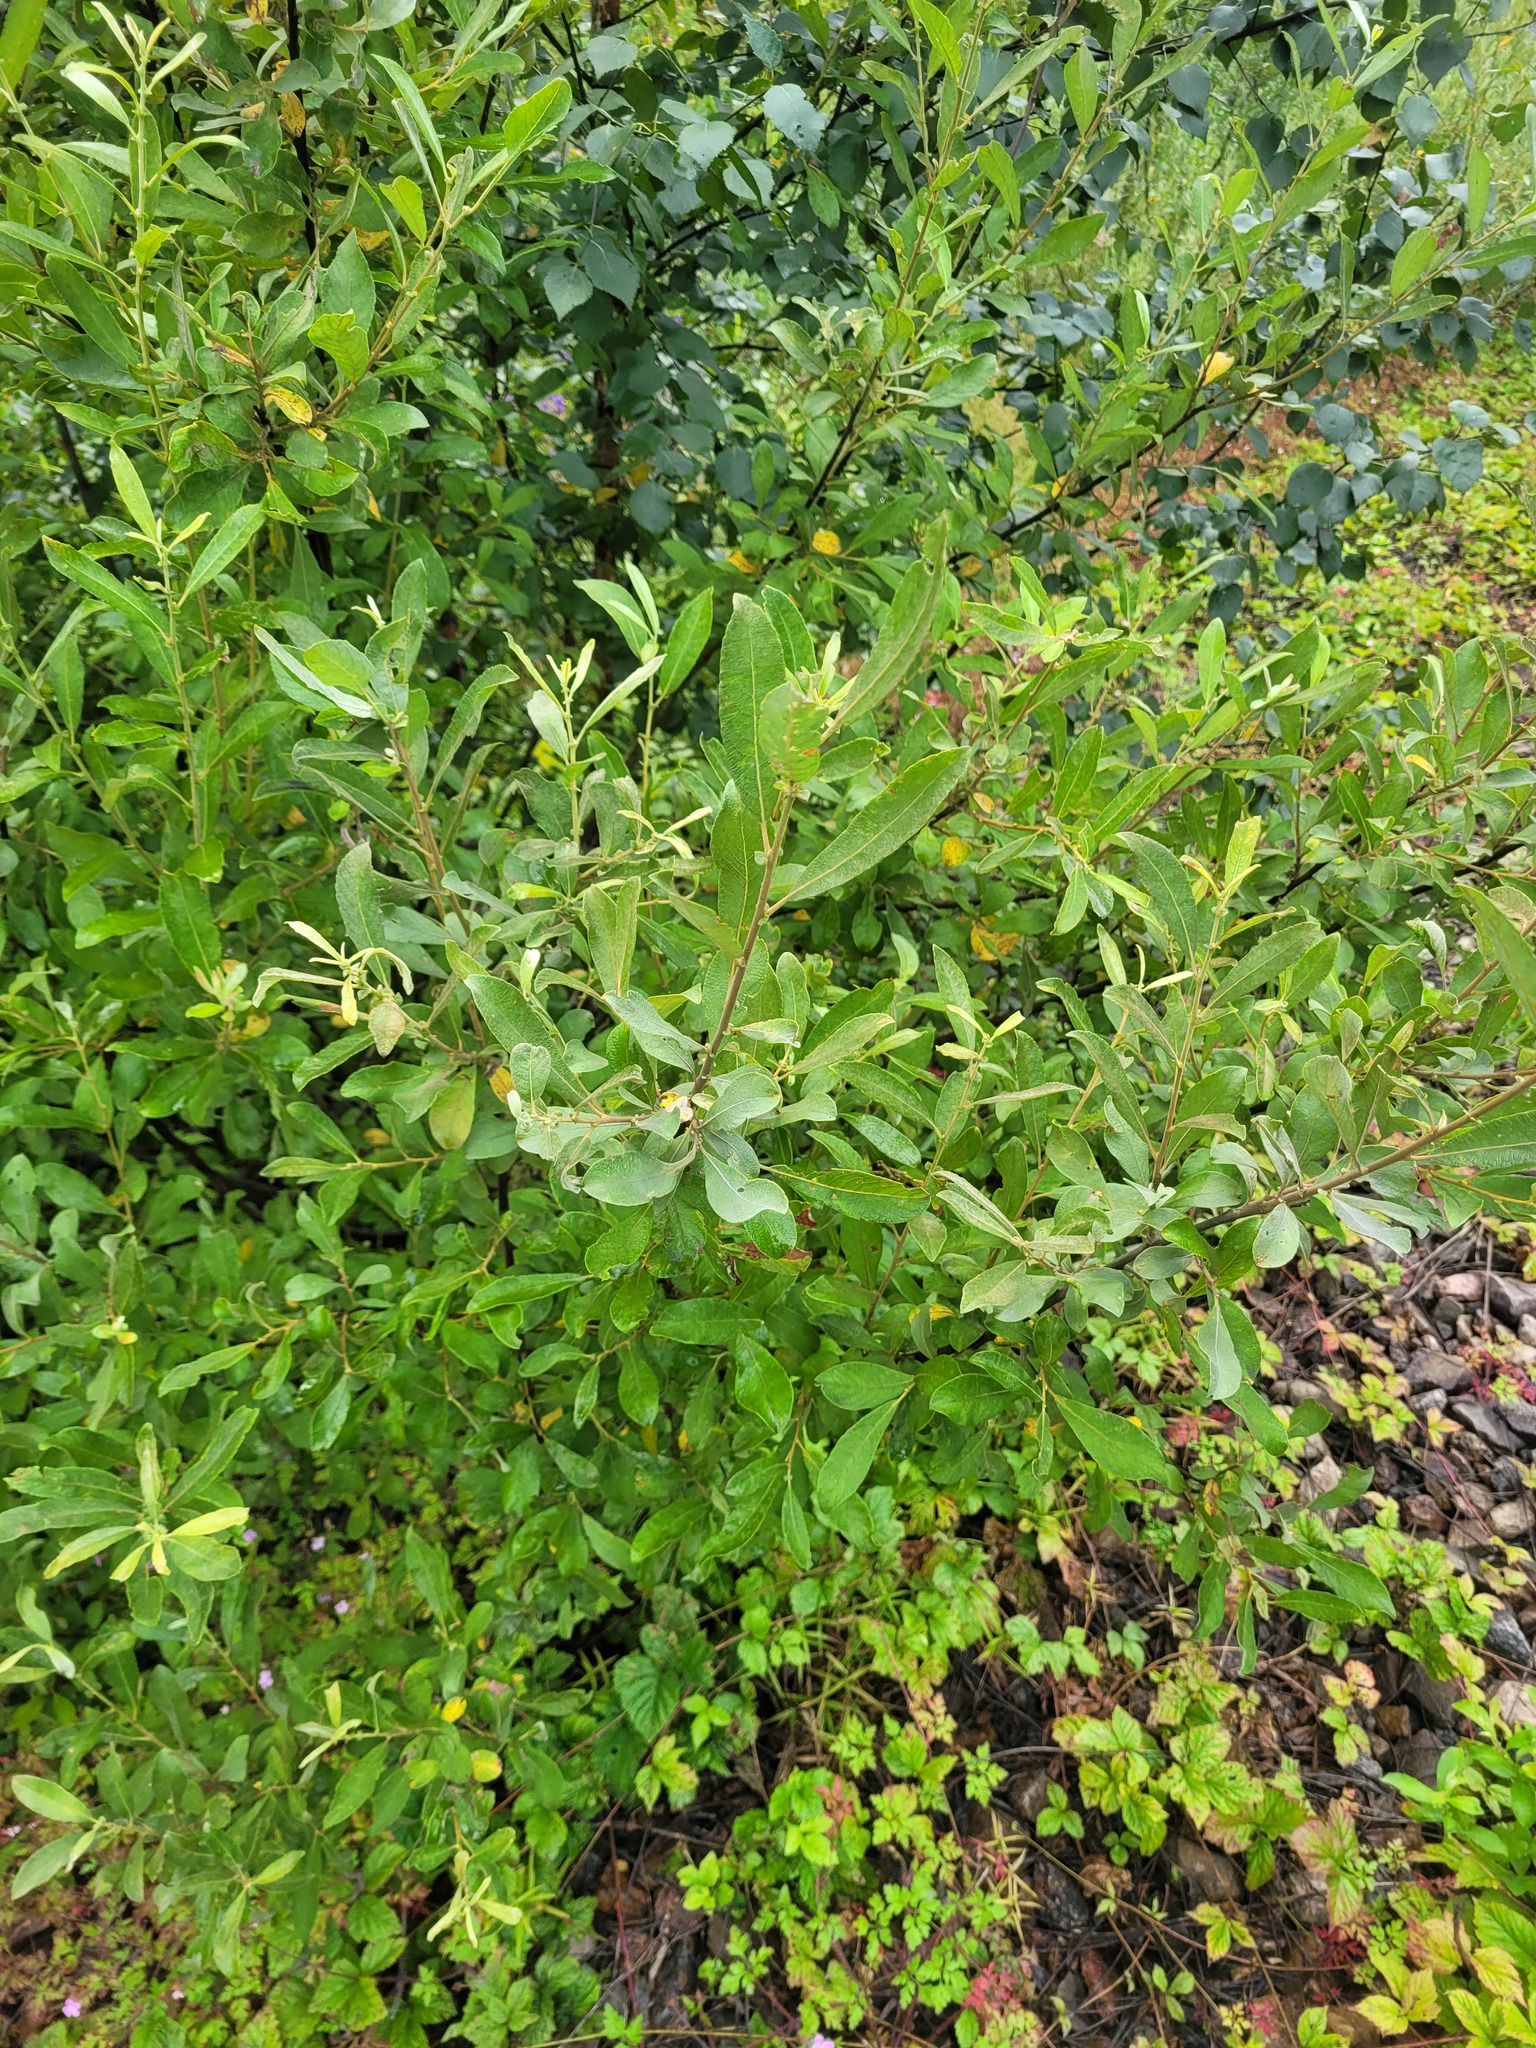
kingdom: Plantae
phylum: Tracheophyta
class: Magnoliopsida
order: Malpighiales
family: Salicaceae
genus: Salix
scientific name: Salix cinerea
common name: Common sallow
